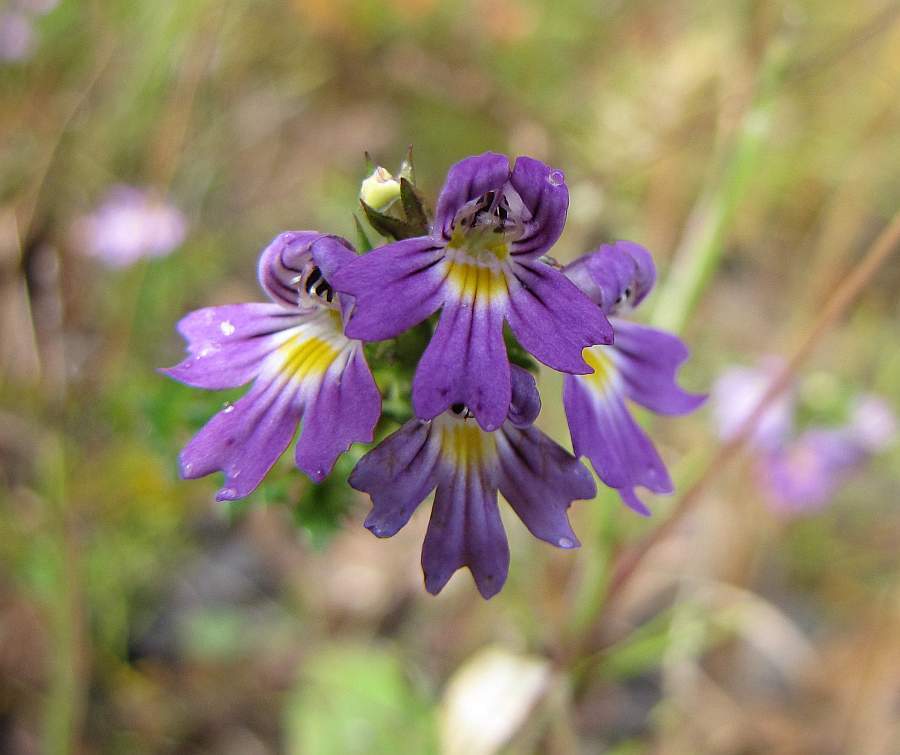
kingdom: Plantae
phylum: Tracheophyta
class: Magnoliopsida
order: Lamiales
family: Orobanchaceae
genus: Euphrasia
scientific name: Euphrasia stricta
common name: Drug eyebright
